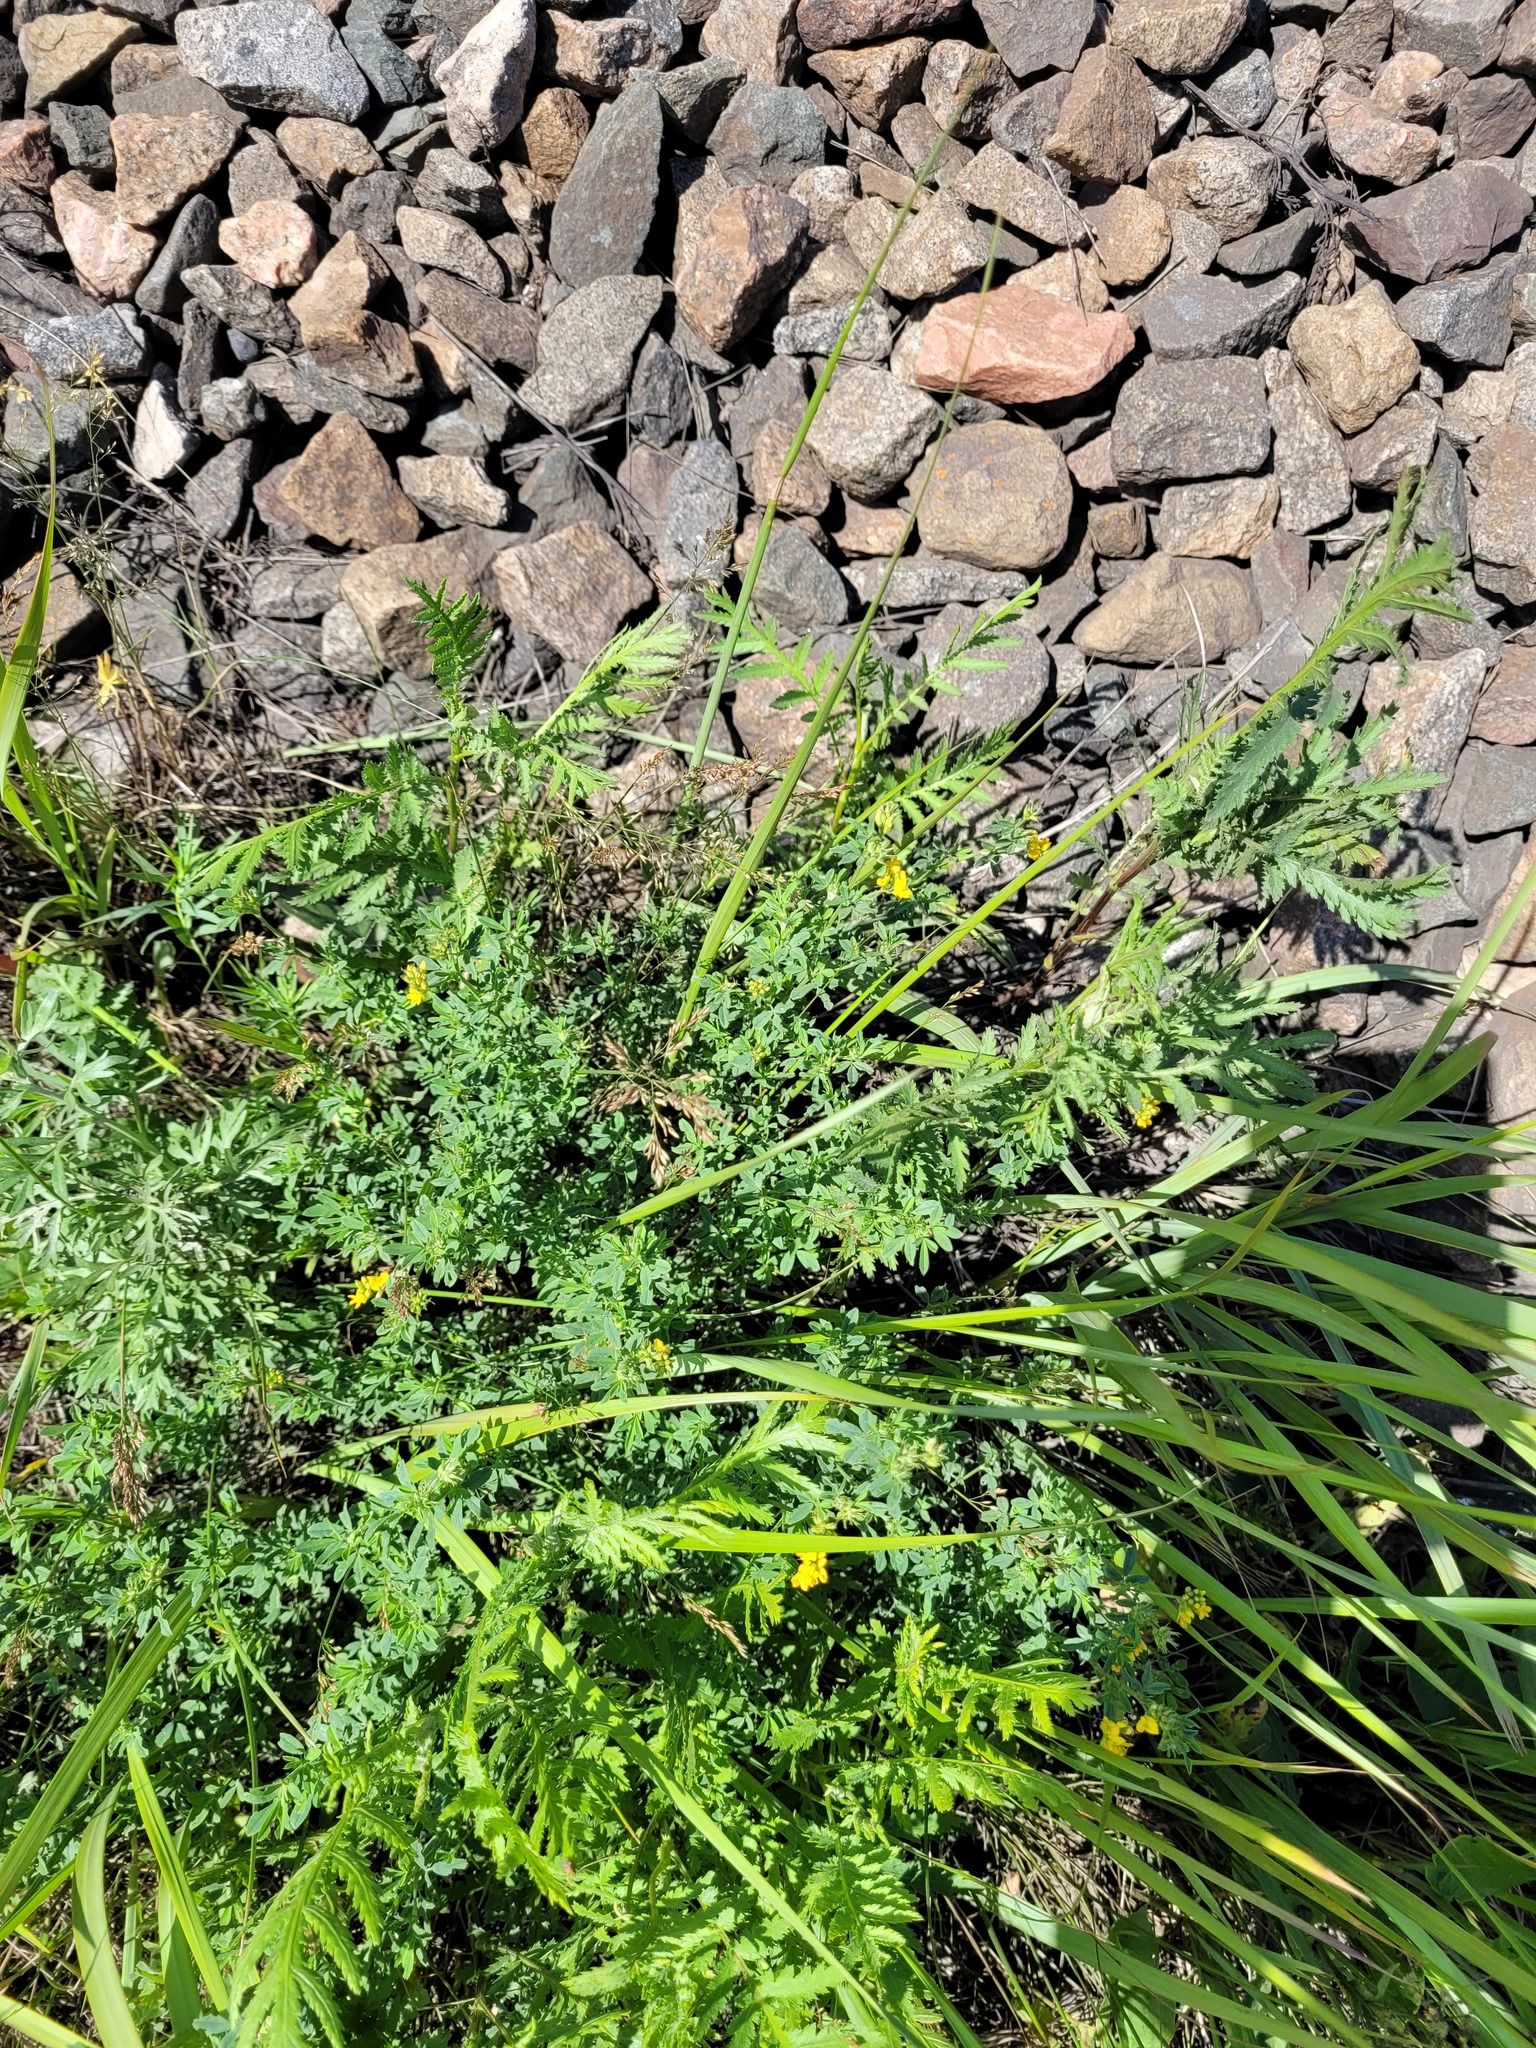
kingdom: Plantae
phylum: Tracheophyta
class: Magnoliopsida
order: Fabales
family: Fabaceae
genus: Medicago
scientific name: Medicago falcata
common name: Sickle medick
